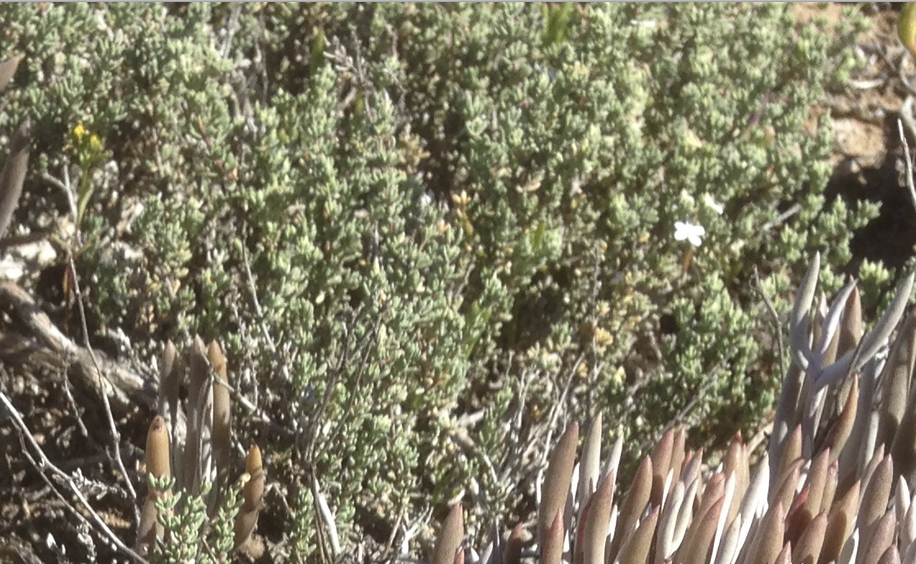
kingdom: Plantae
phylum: Tracheophyta
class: Magnoliopsida
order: Caryophyllales
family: Frankeniaceae
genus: Frankenia
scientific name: Frankenia palmeri
